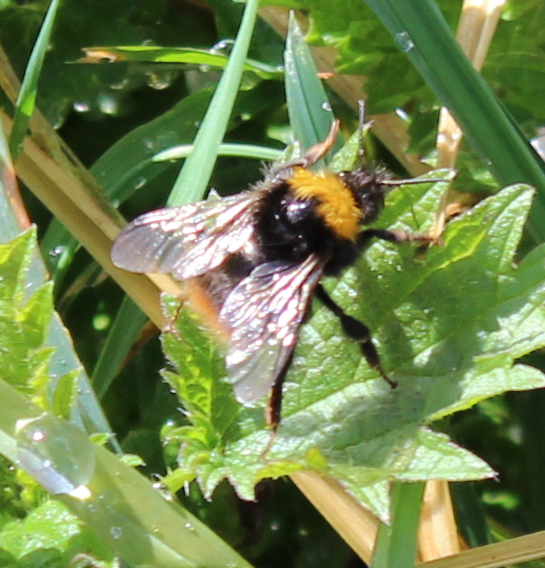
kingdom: Animalia
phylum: Arthropoda
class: Insecta
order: Hymenoptera
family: Apidae
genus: Bombus
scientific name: Bombus pratorum
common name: Early humble-bee
